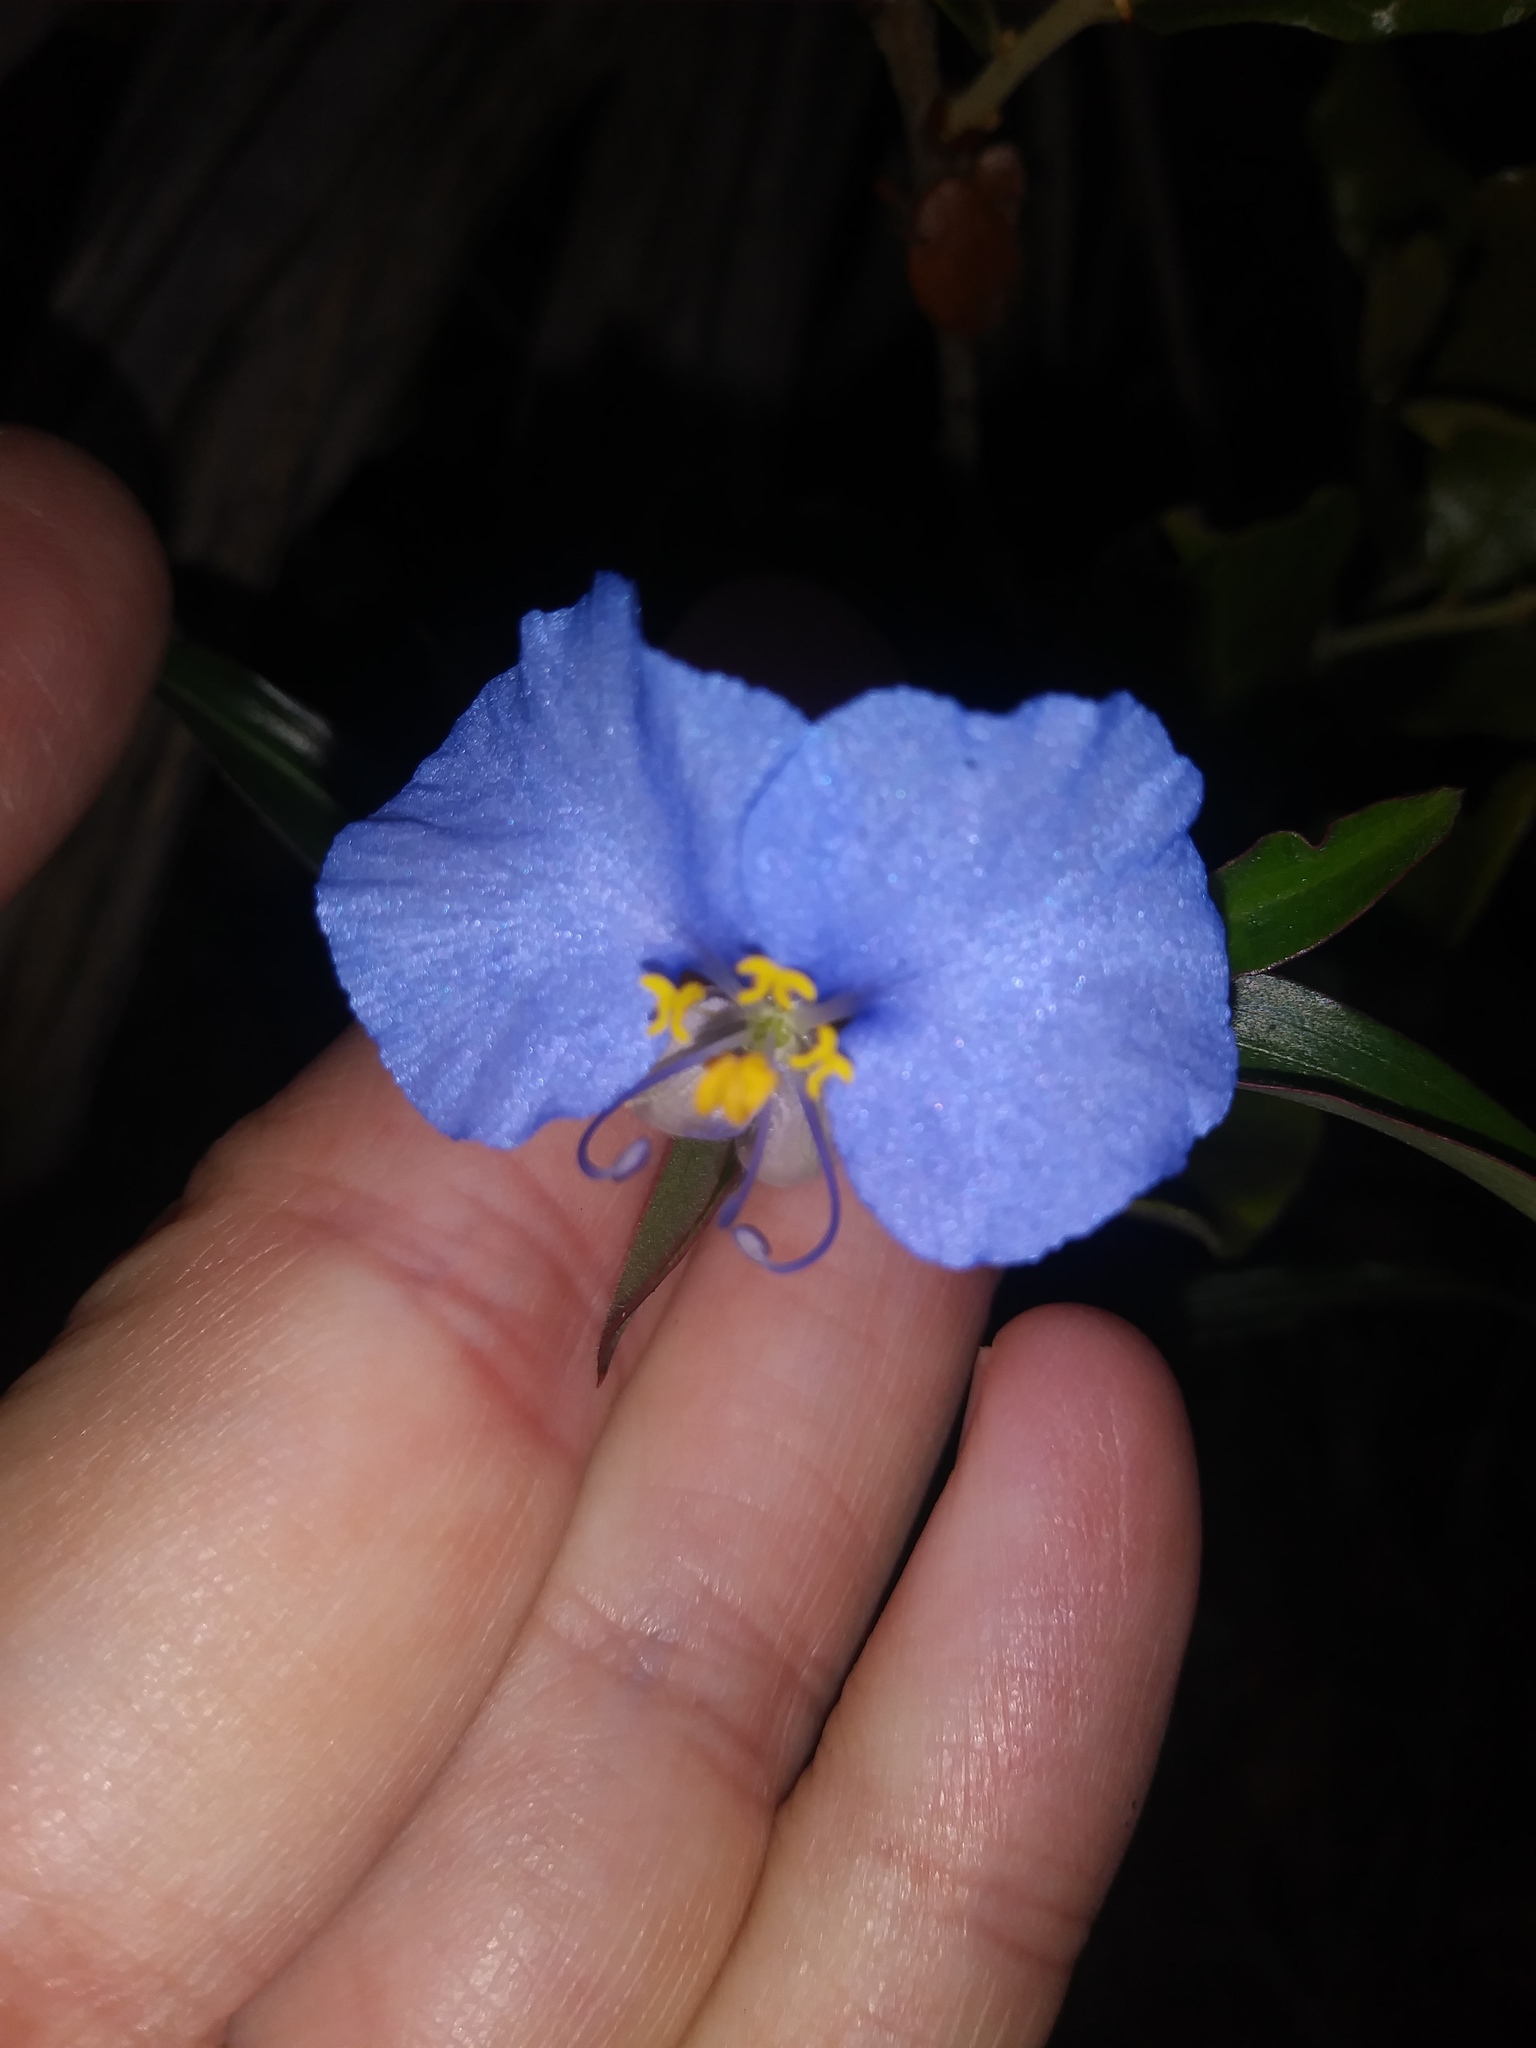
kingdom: Plantae
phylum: Tracheophyta
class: Liliopsida
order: Commelinales
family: Commelinaceae
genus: Commelina
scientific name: Commelina erecta
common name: Blousel blommetjie
